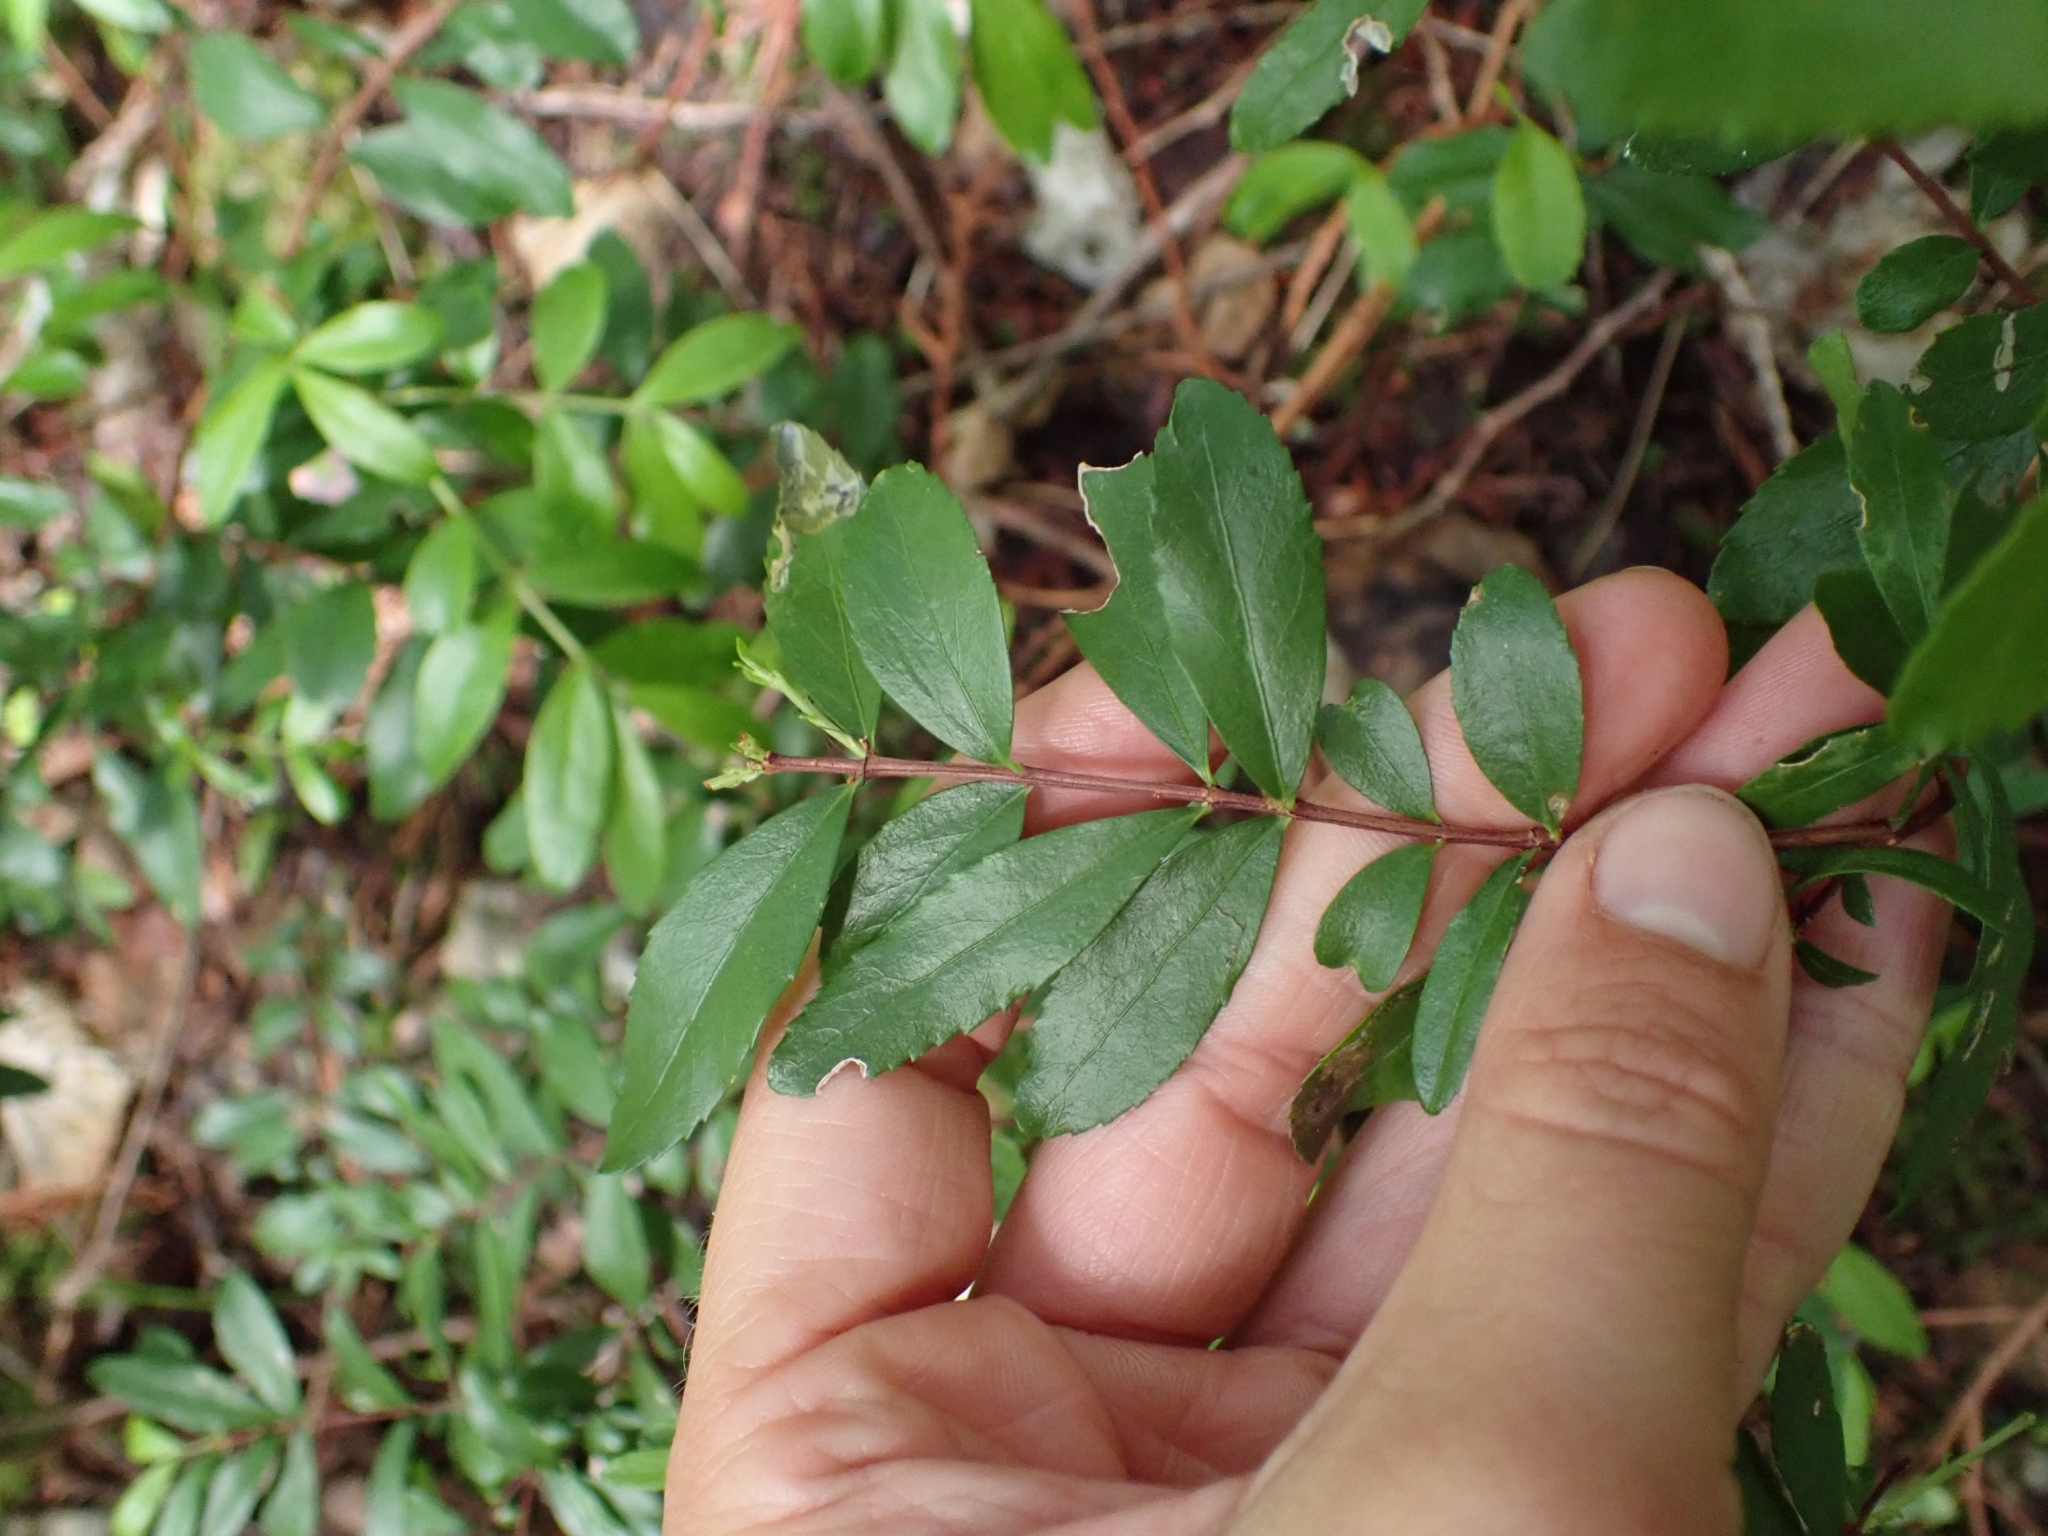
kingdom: Plantae
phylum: Tracheophyta
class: Magnoliopsida
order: Celastrales
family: Celastraceae
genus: Paxistima
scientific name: Paxistima myrsinites
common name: Mountain-lover
